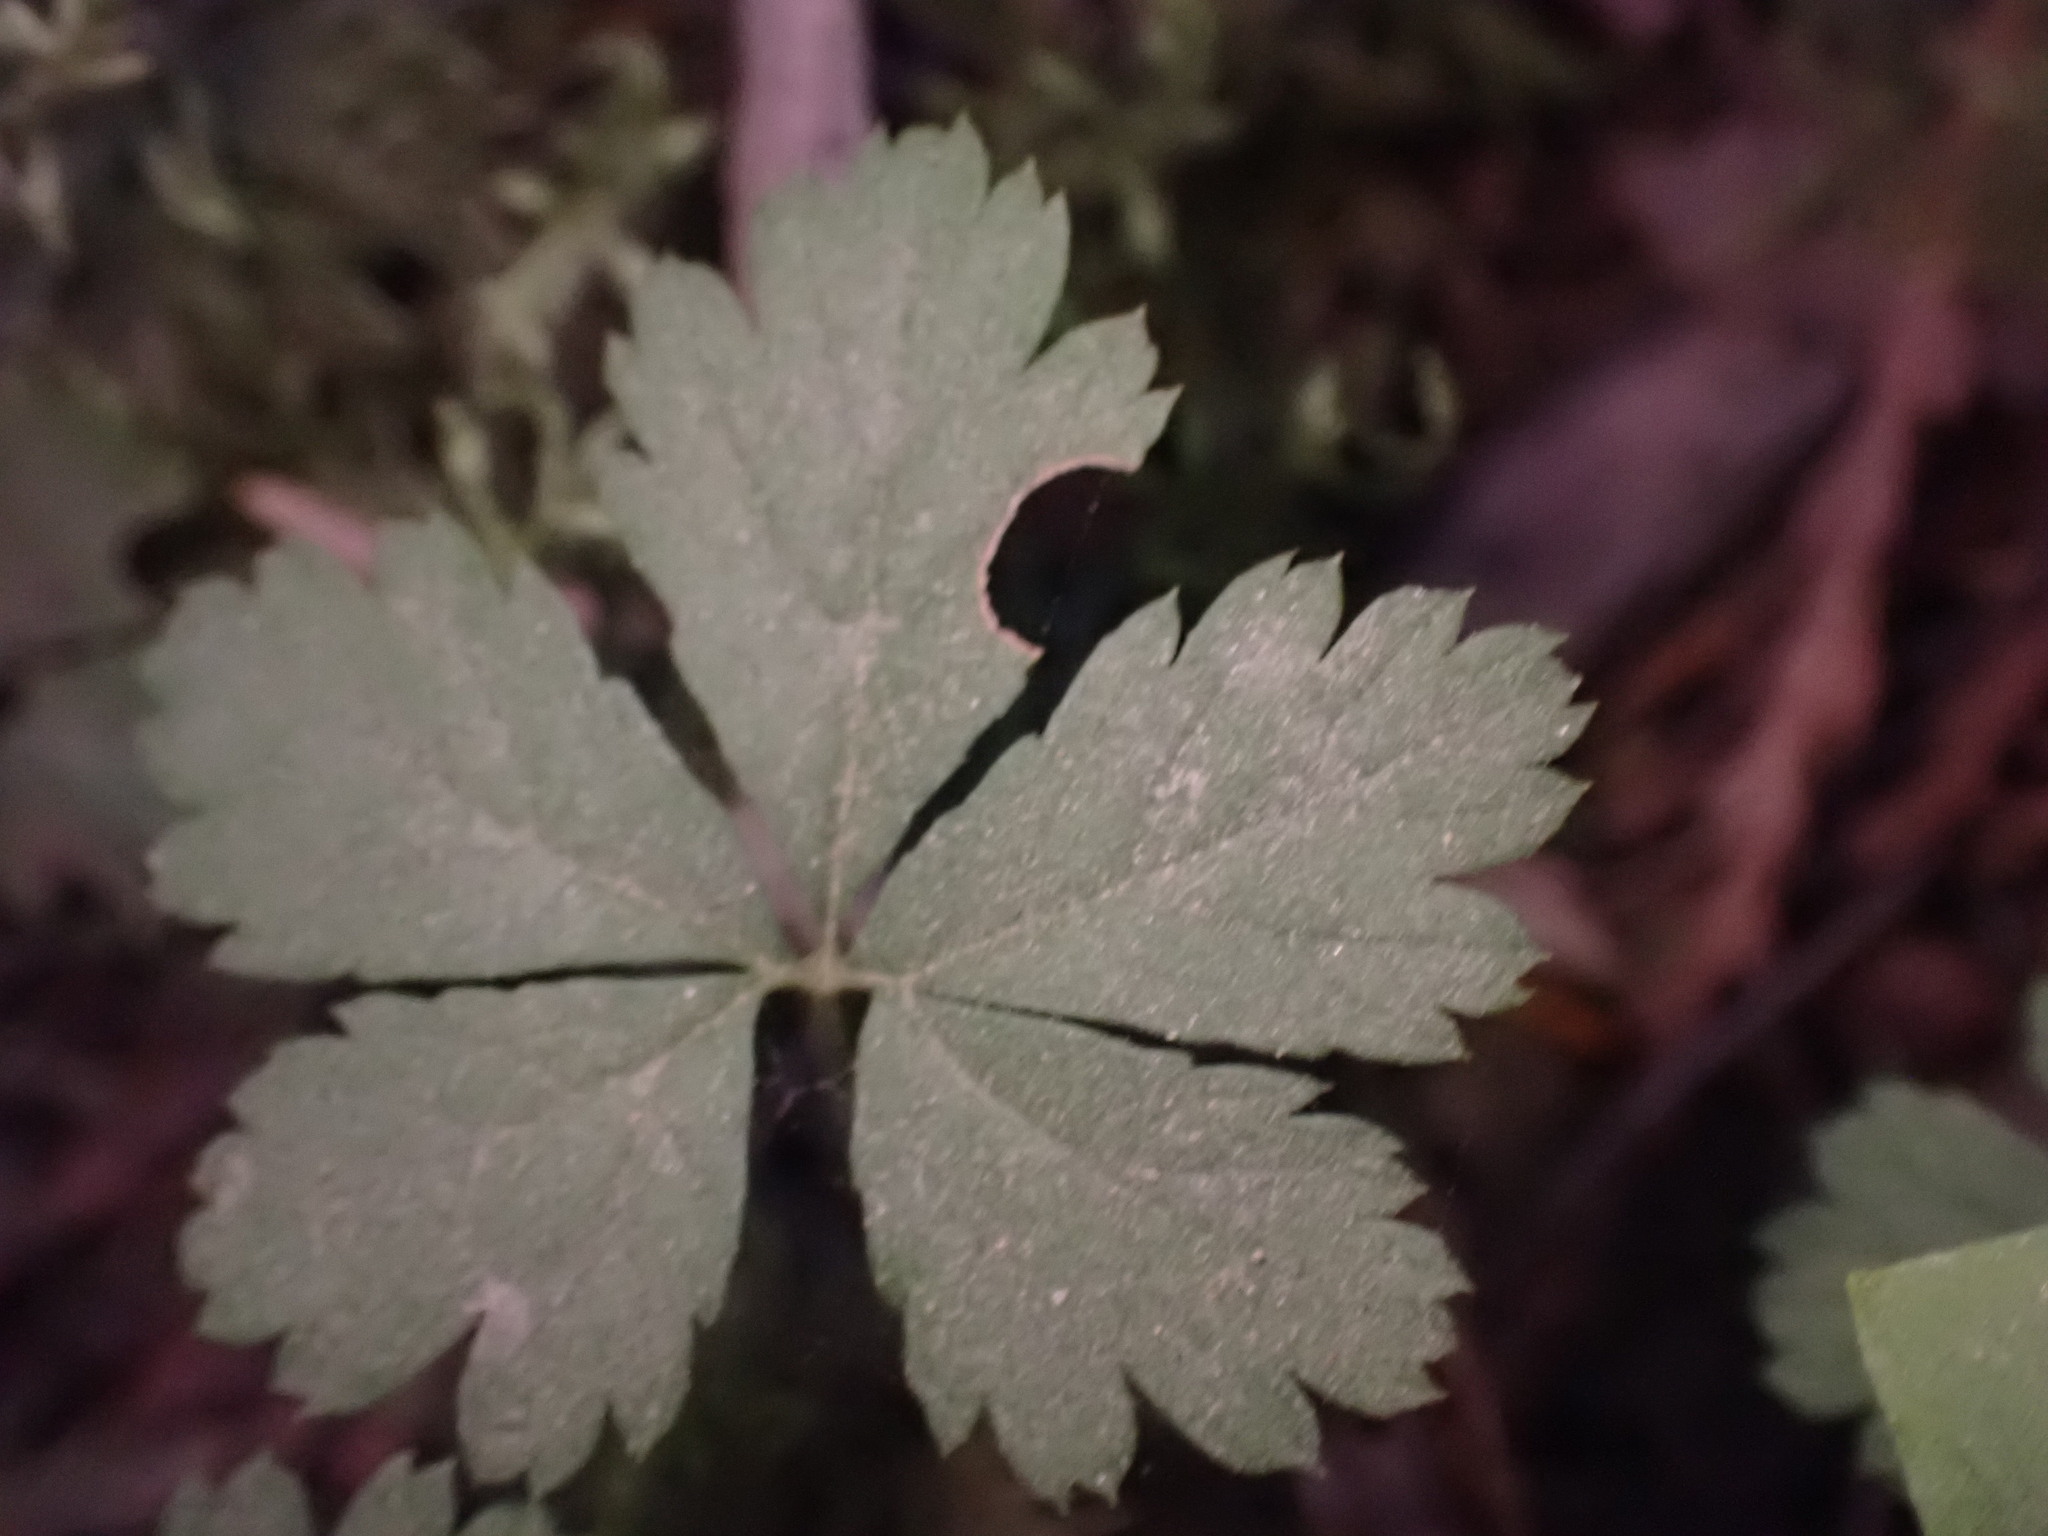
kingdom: Plantae
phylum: Tracheophyta
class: Magnoliopsida
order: Rosales
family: Rosaceae
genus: Rubus
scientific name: Rubus pedatus
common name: Creeping raspberry
